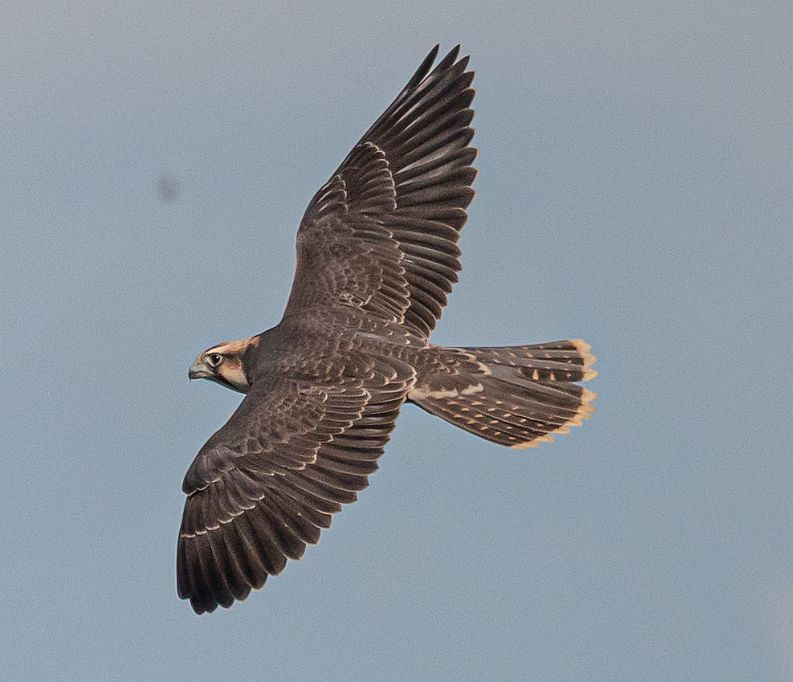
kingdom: Animalia
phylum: Chordata
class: Aves
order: Falconiformes
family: Falconidae
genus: Falco
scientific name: Falco biarmicus
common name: Lanner falcon
